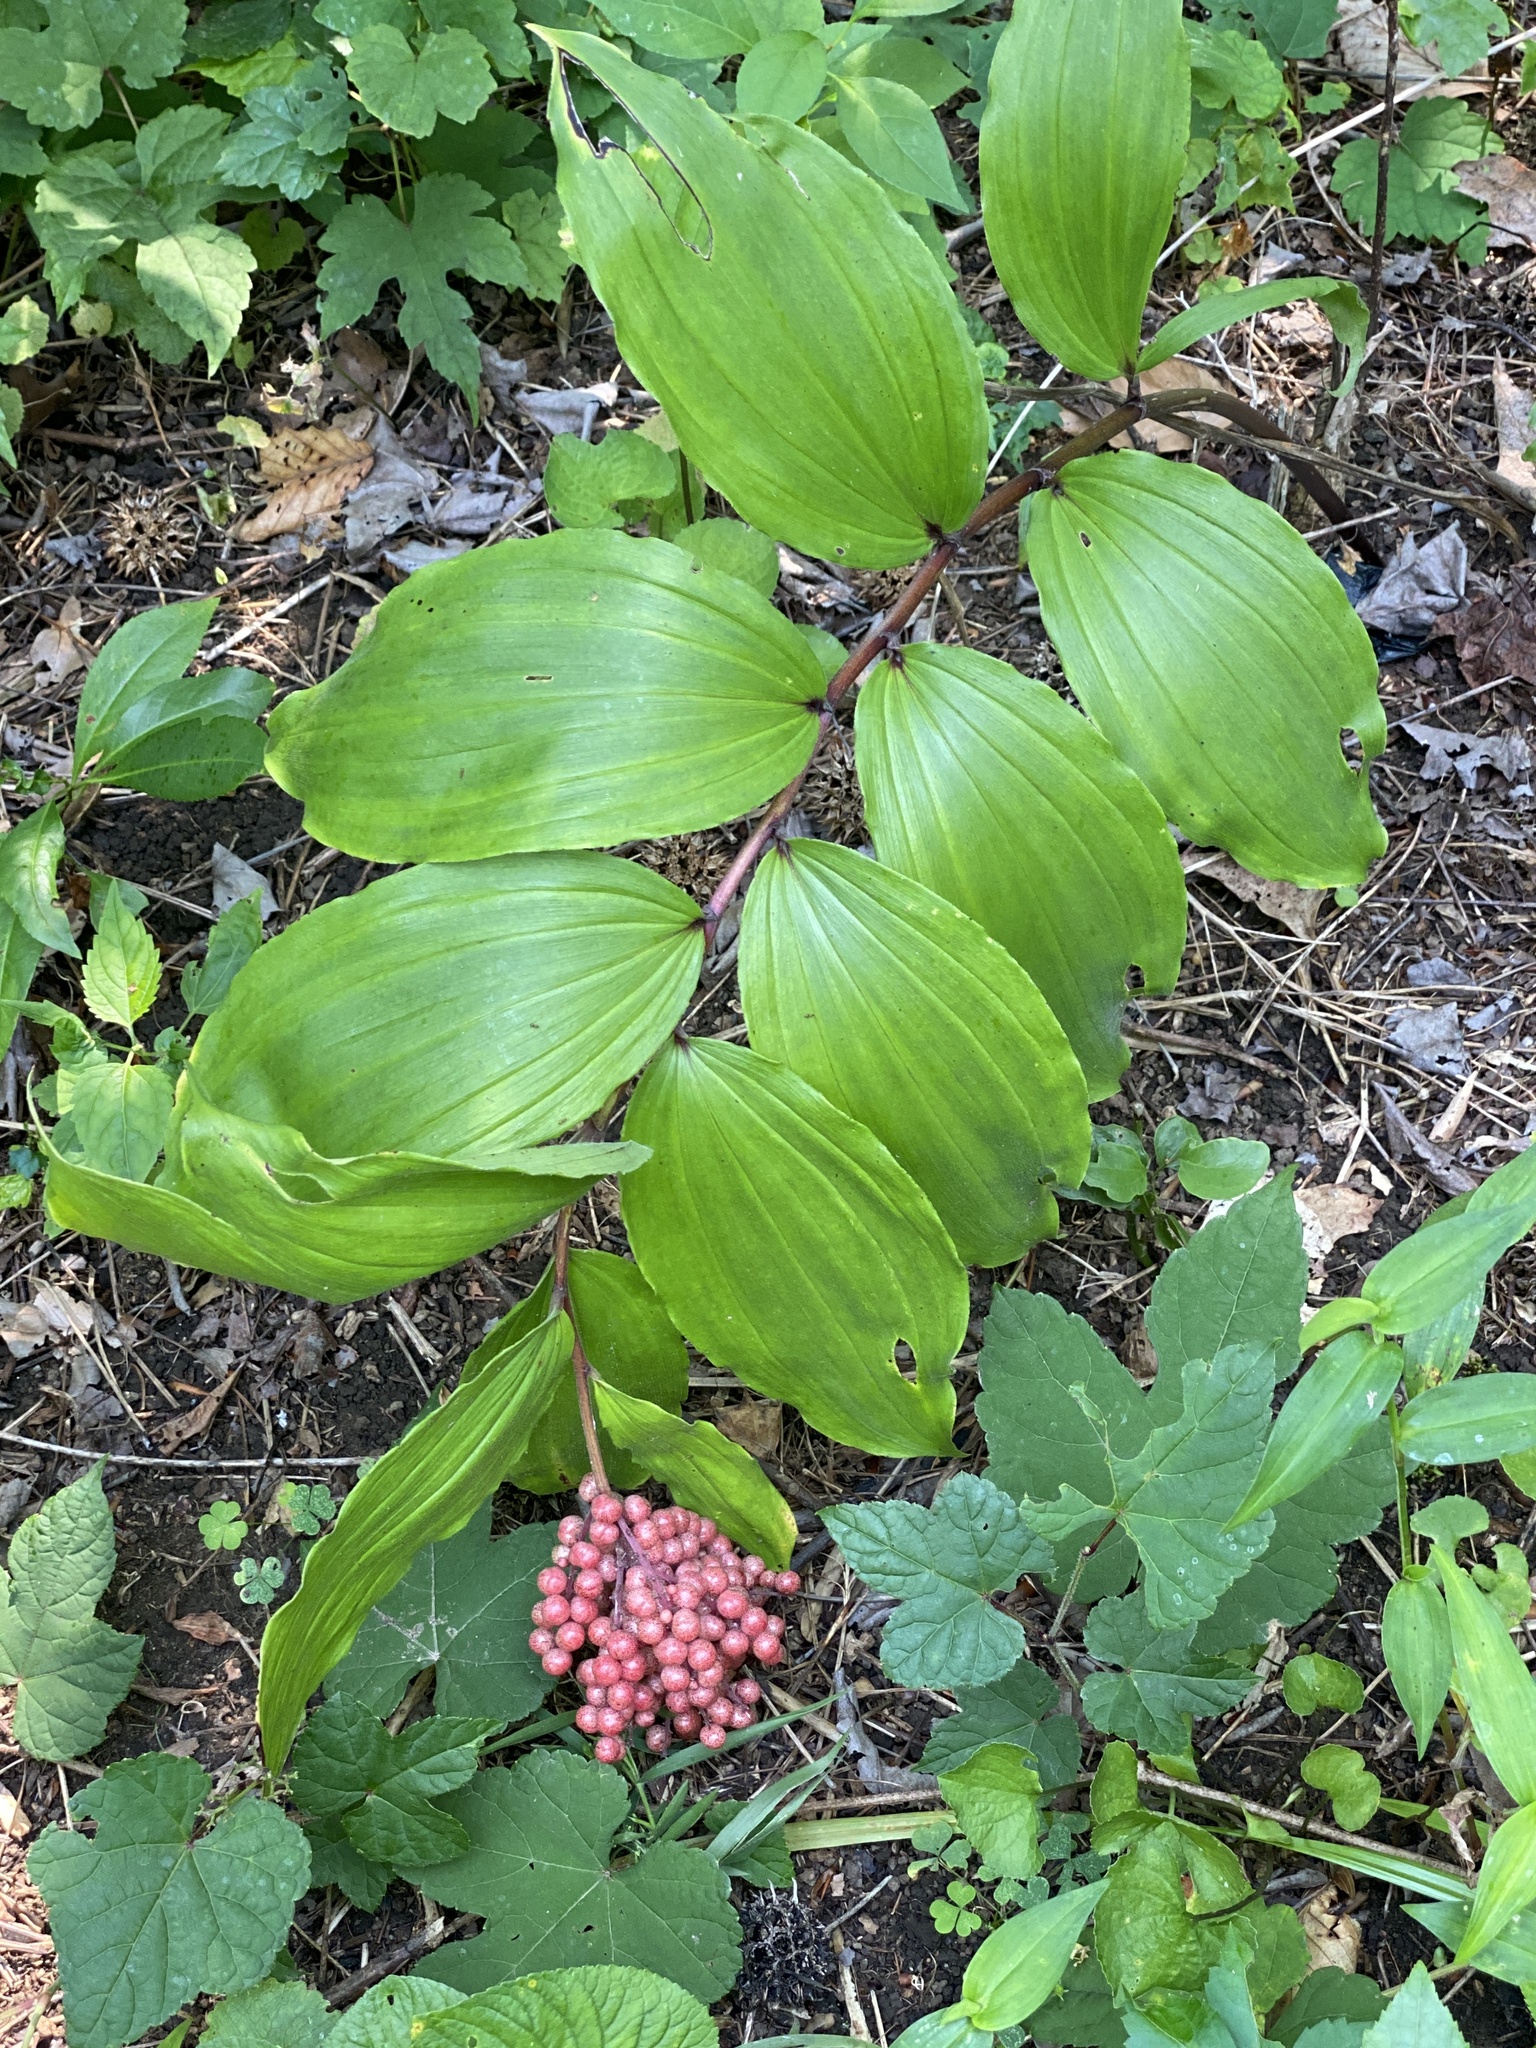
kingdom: Plantae
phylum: Tracheophyta
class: Liliopsida
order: Asparagales
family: Asparagaceae
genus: Maianthemum
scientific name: Maianthemum racemosum
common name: False spikenard
